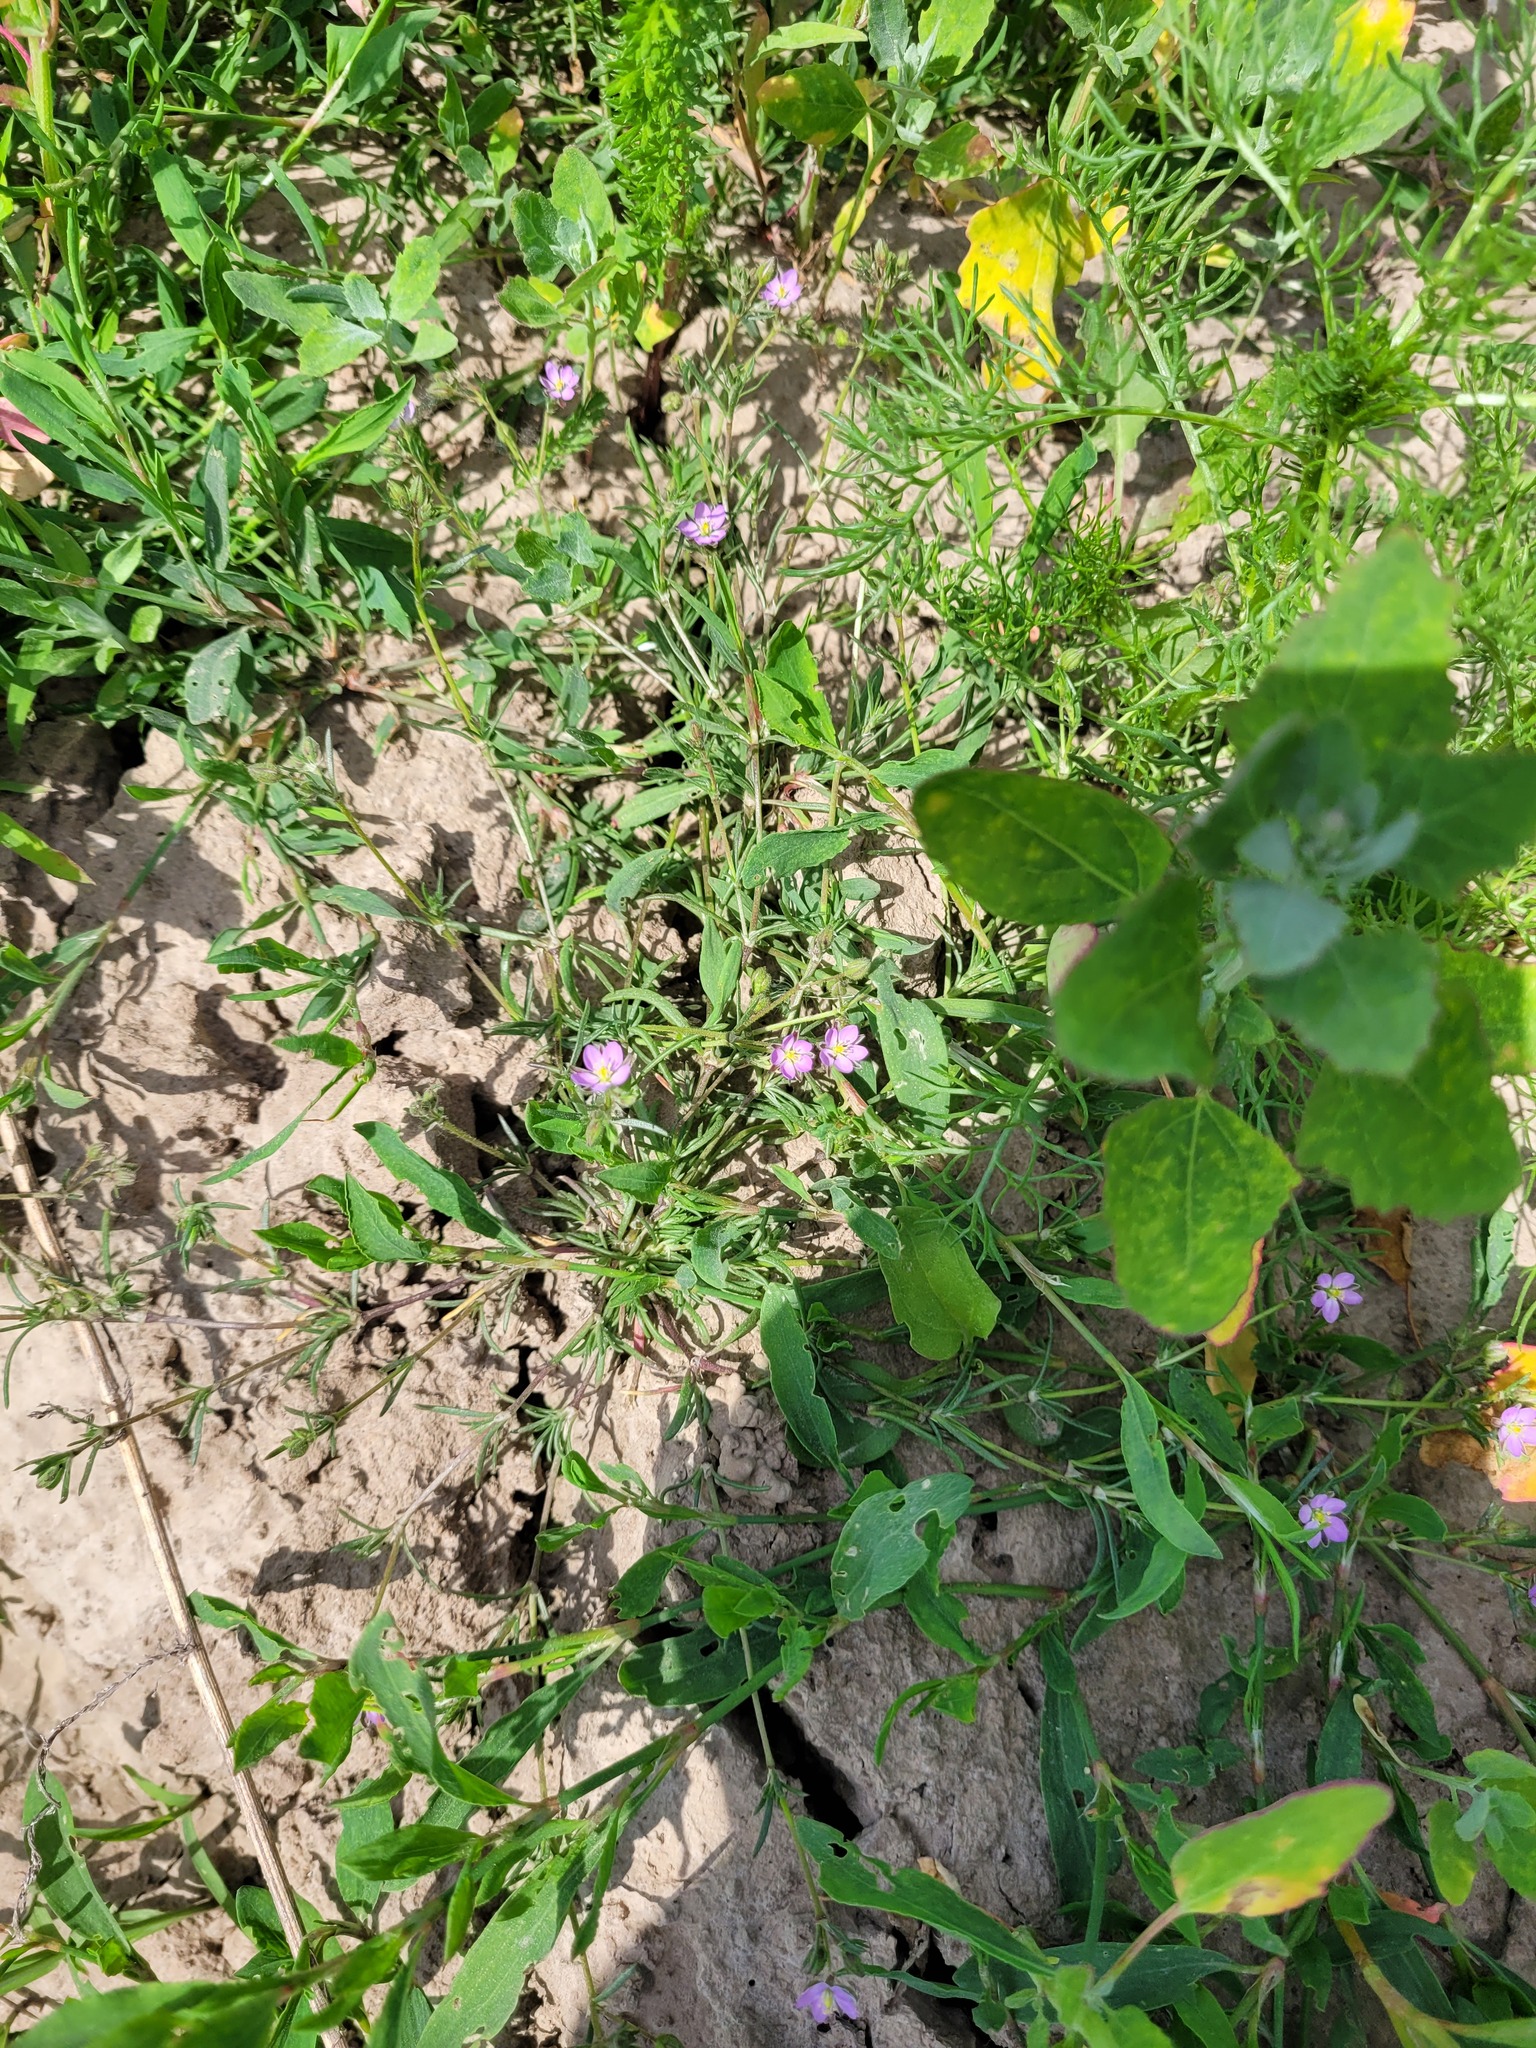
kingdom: Plantae
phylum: Tracheophyta
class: Magnoliopsida
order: Caryophyllales
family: Caryophyllaceae
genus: Spergularia
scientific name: Spergularia rubra
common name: Red sand-spurrey
